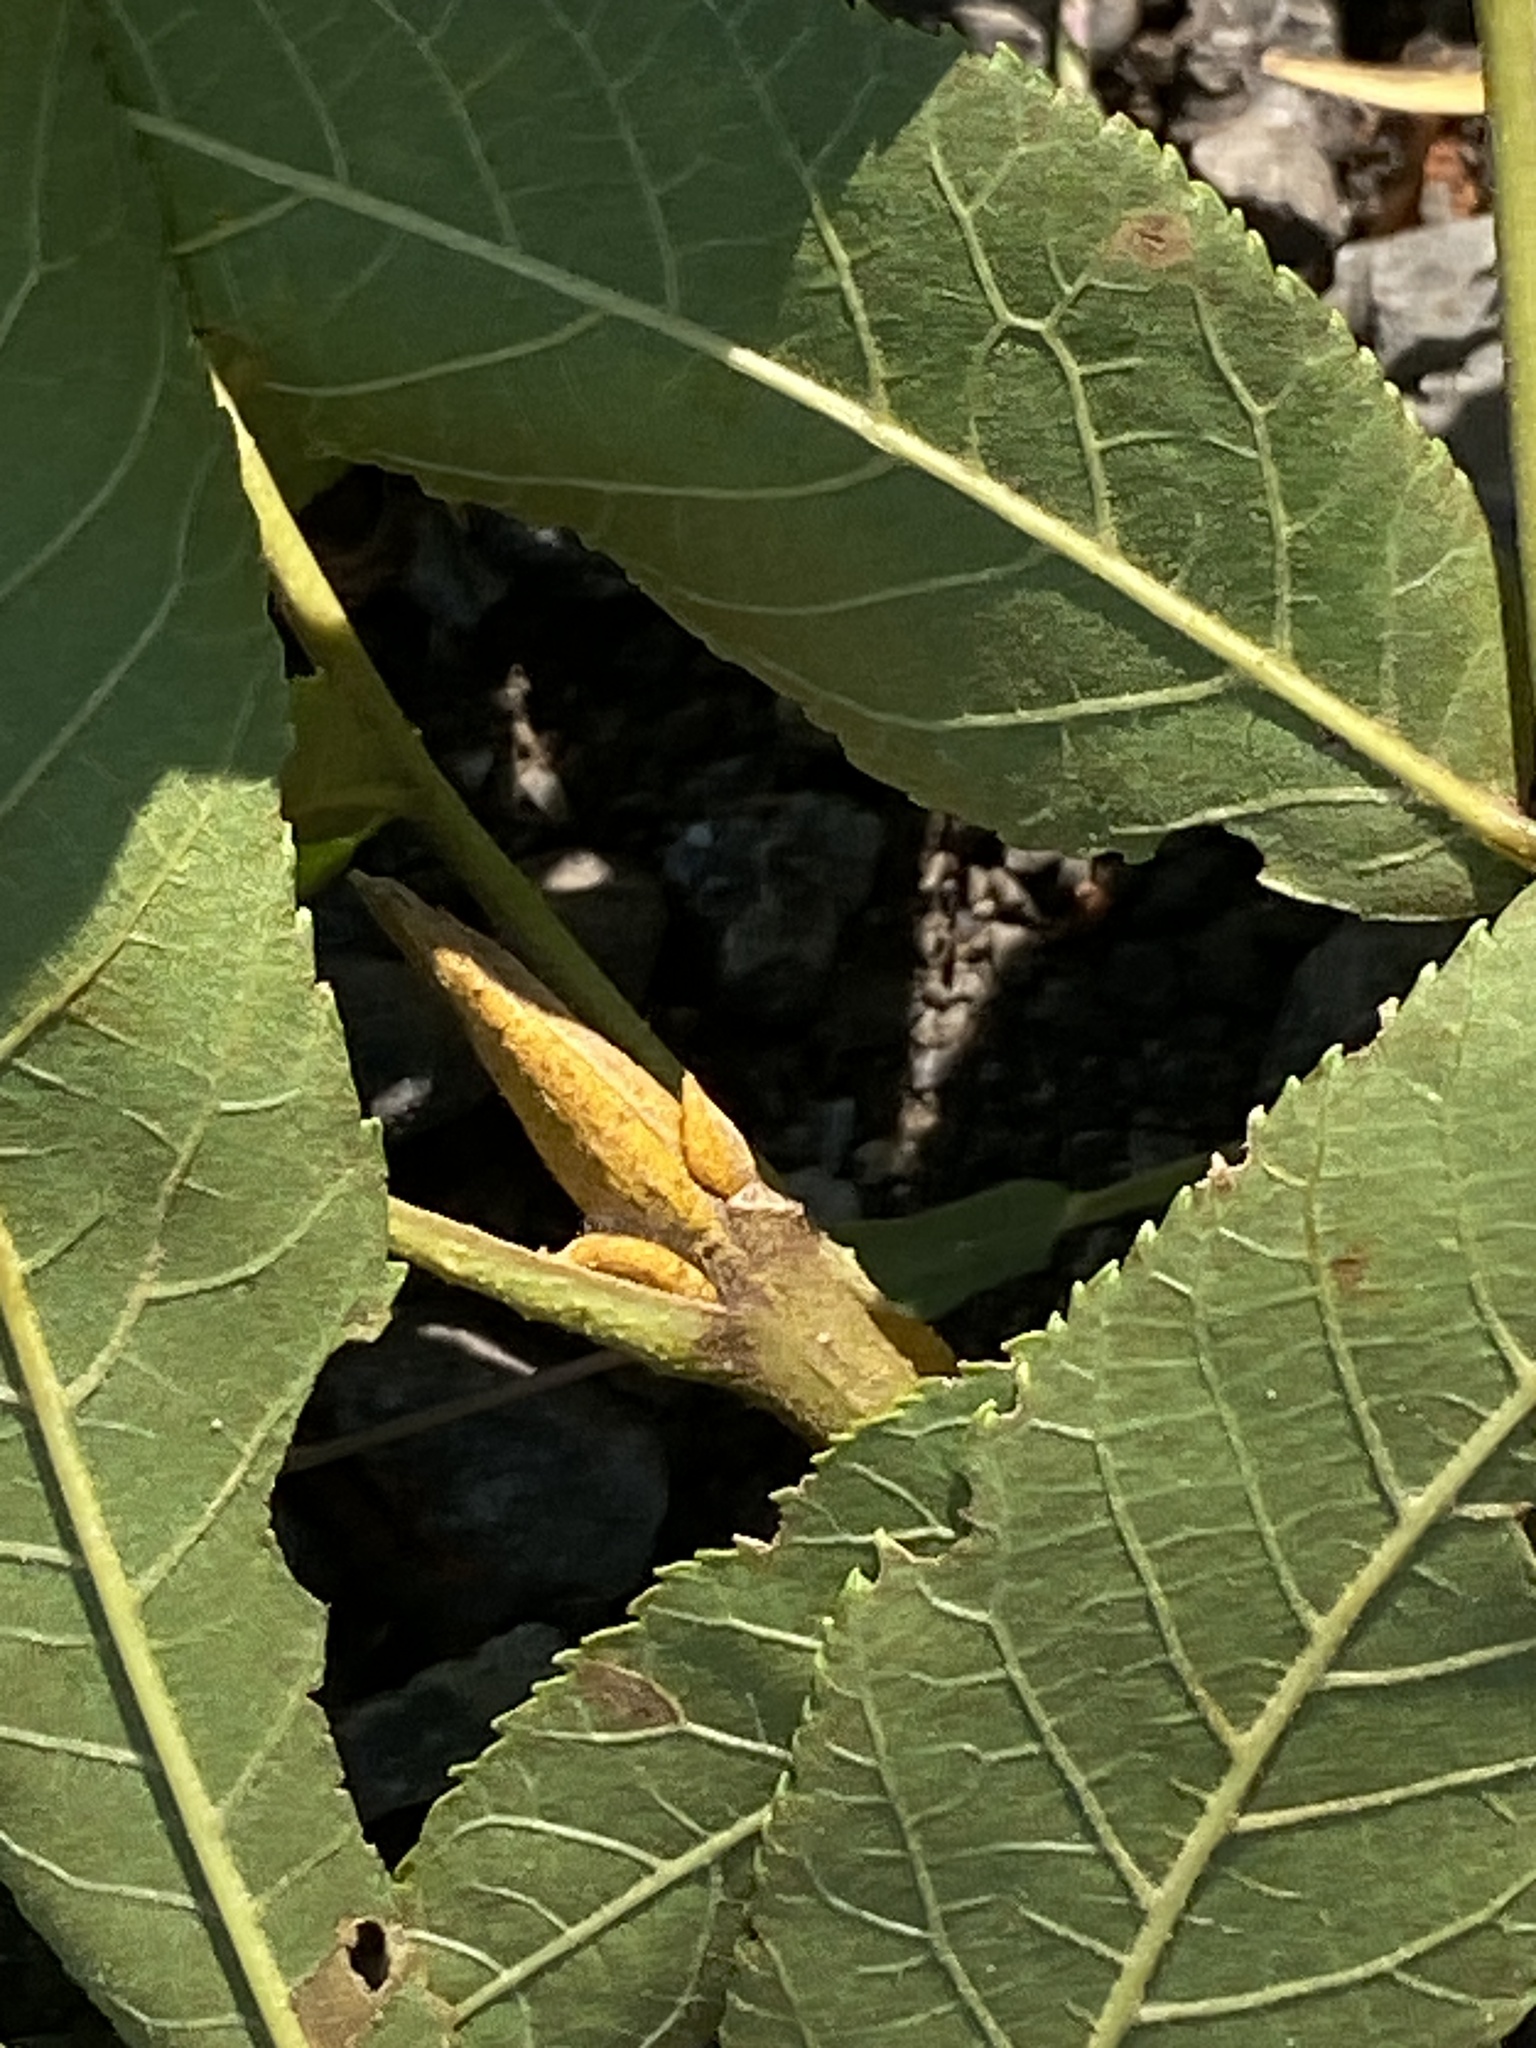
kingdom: Plantae
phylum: Tracheophyta
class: Magnoliopsida
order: Fagales
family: Juglandaceae
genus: Carya
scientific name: Carya cordiformis
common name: Bitternut hickory
